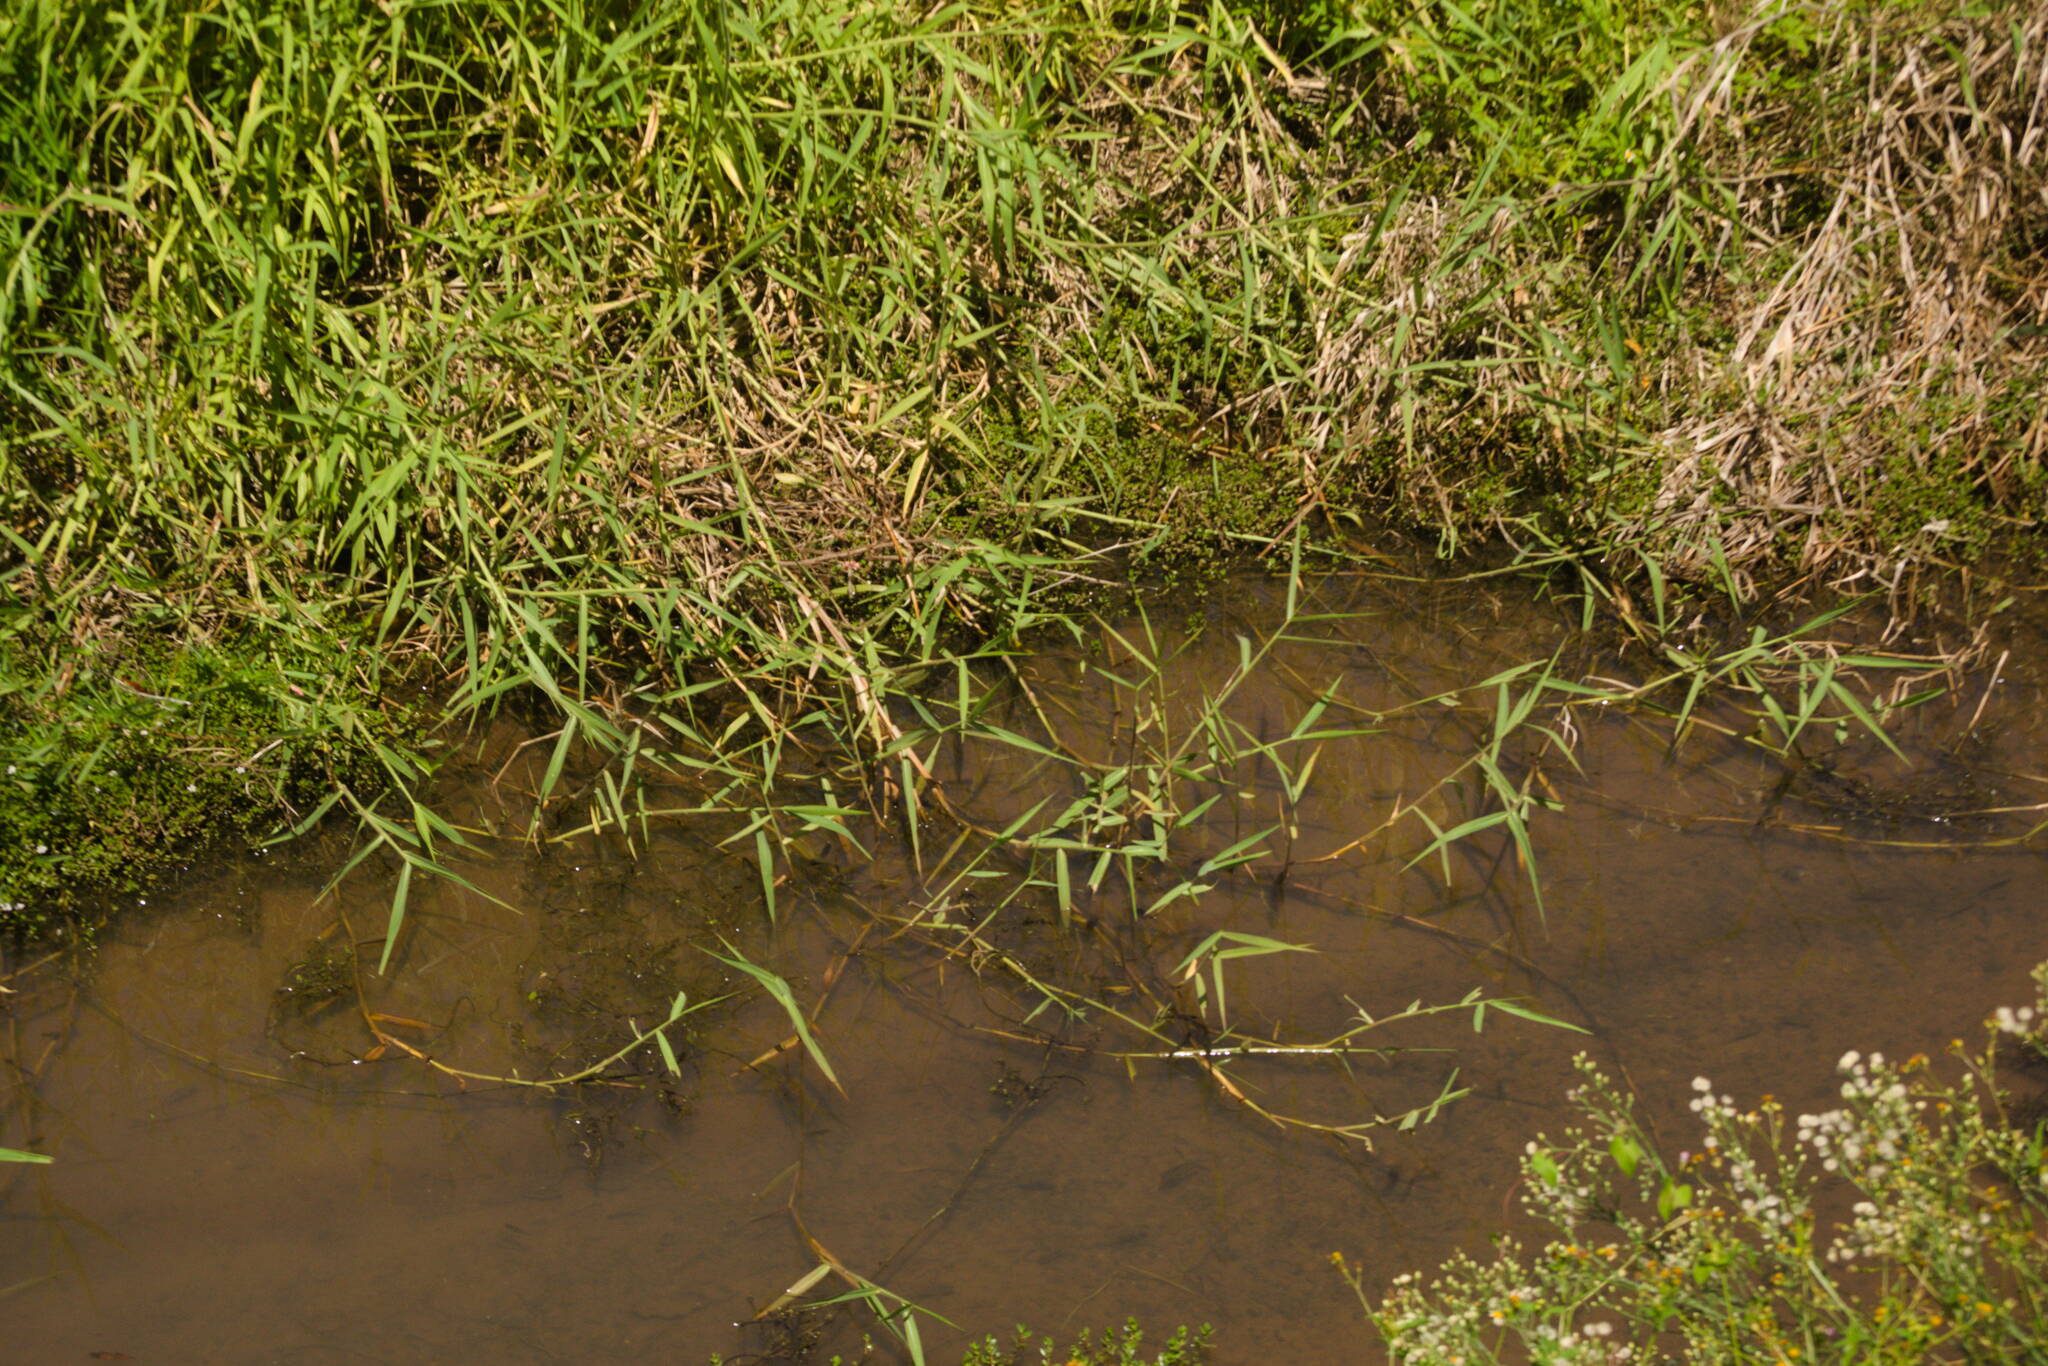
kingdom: Plantae
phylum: Tracheophyta
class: Liliopsida
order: Poales
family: Poaceae
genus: Urochloa
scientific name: Urochloa mutica
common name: Para grass
